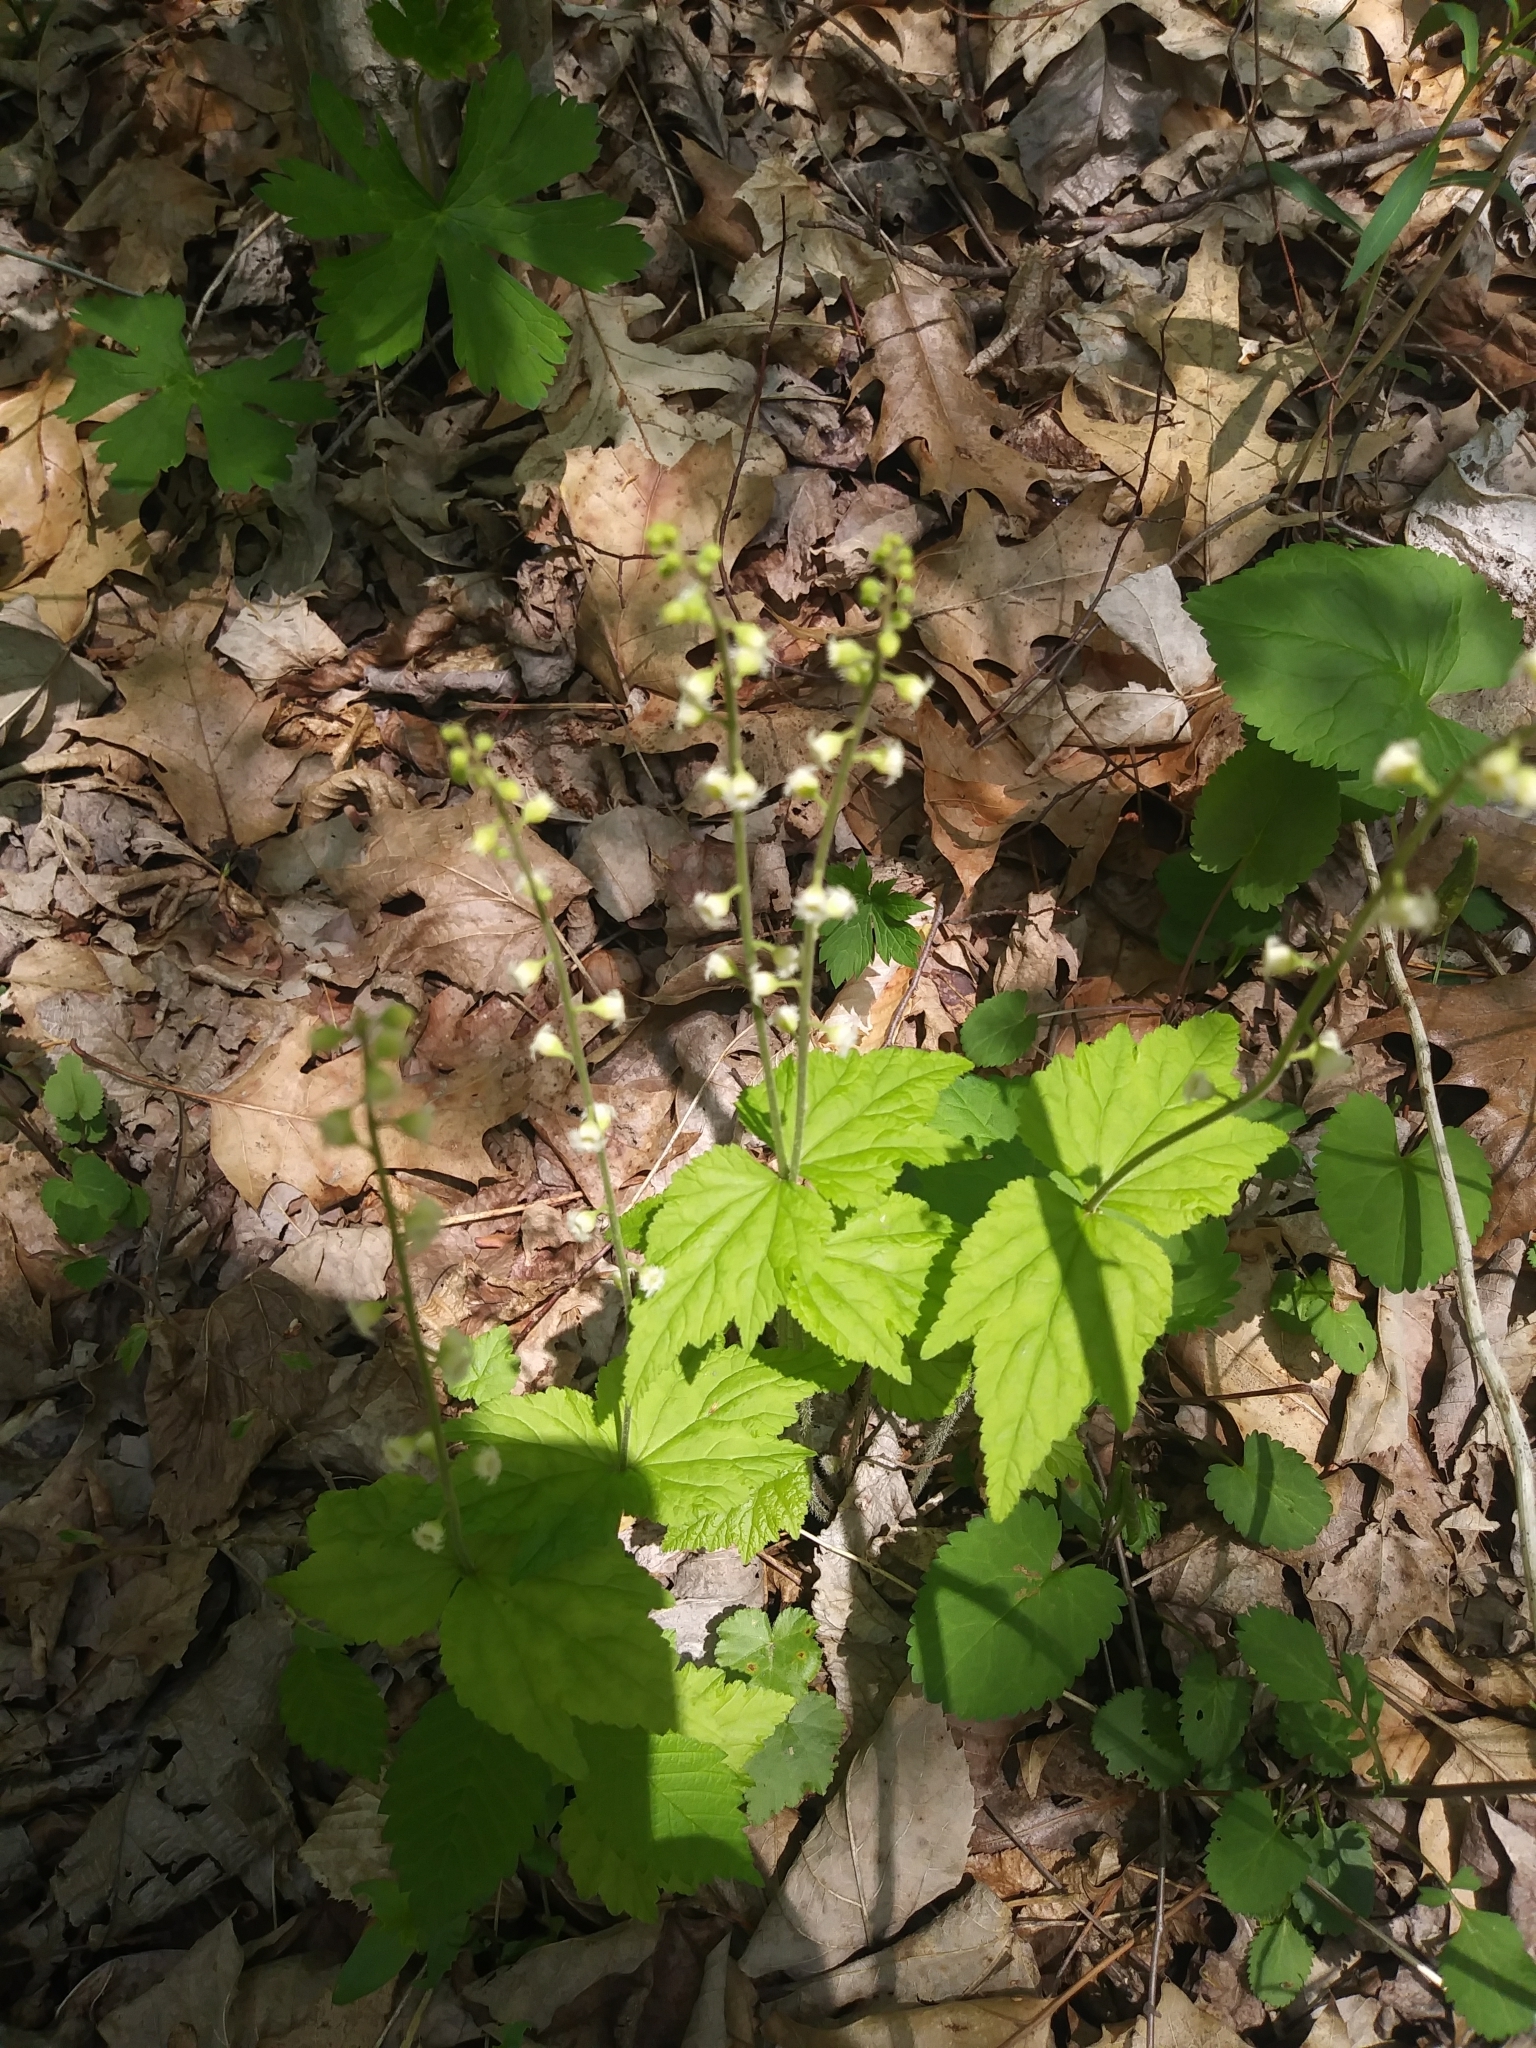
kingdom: Plantae
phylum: Tracheophyta
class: Magnoliopsida
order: Saxifragales
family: Saxifragaceae
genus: Mitella
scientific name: Mitella diphylla
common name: Coolwort
